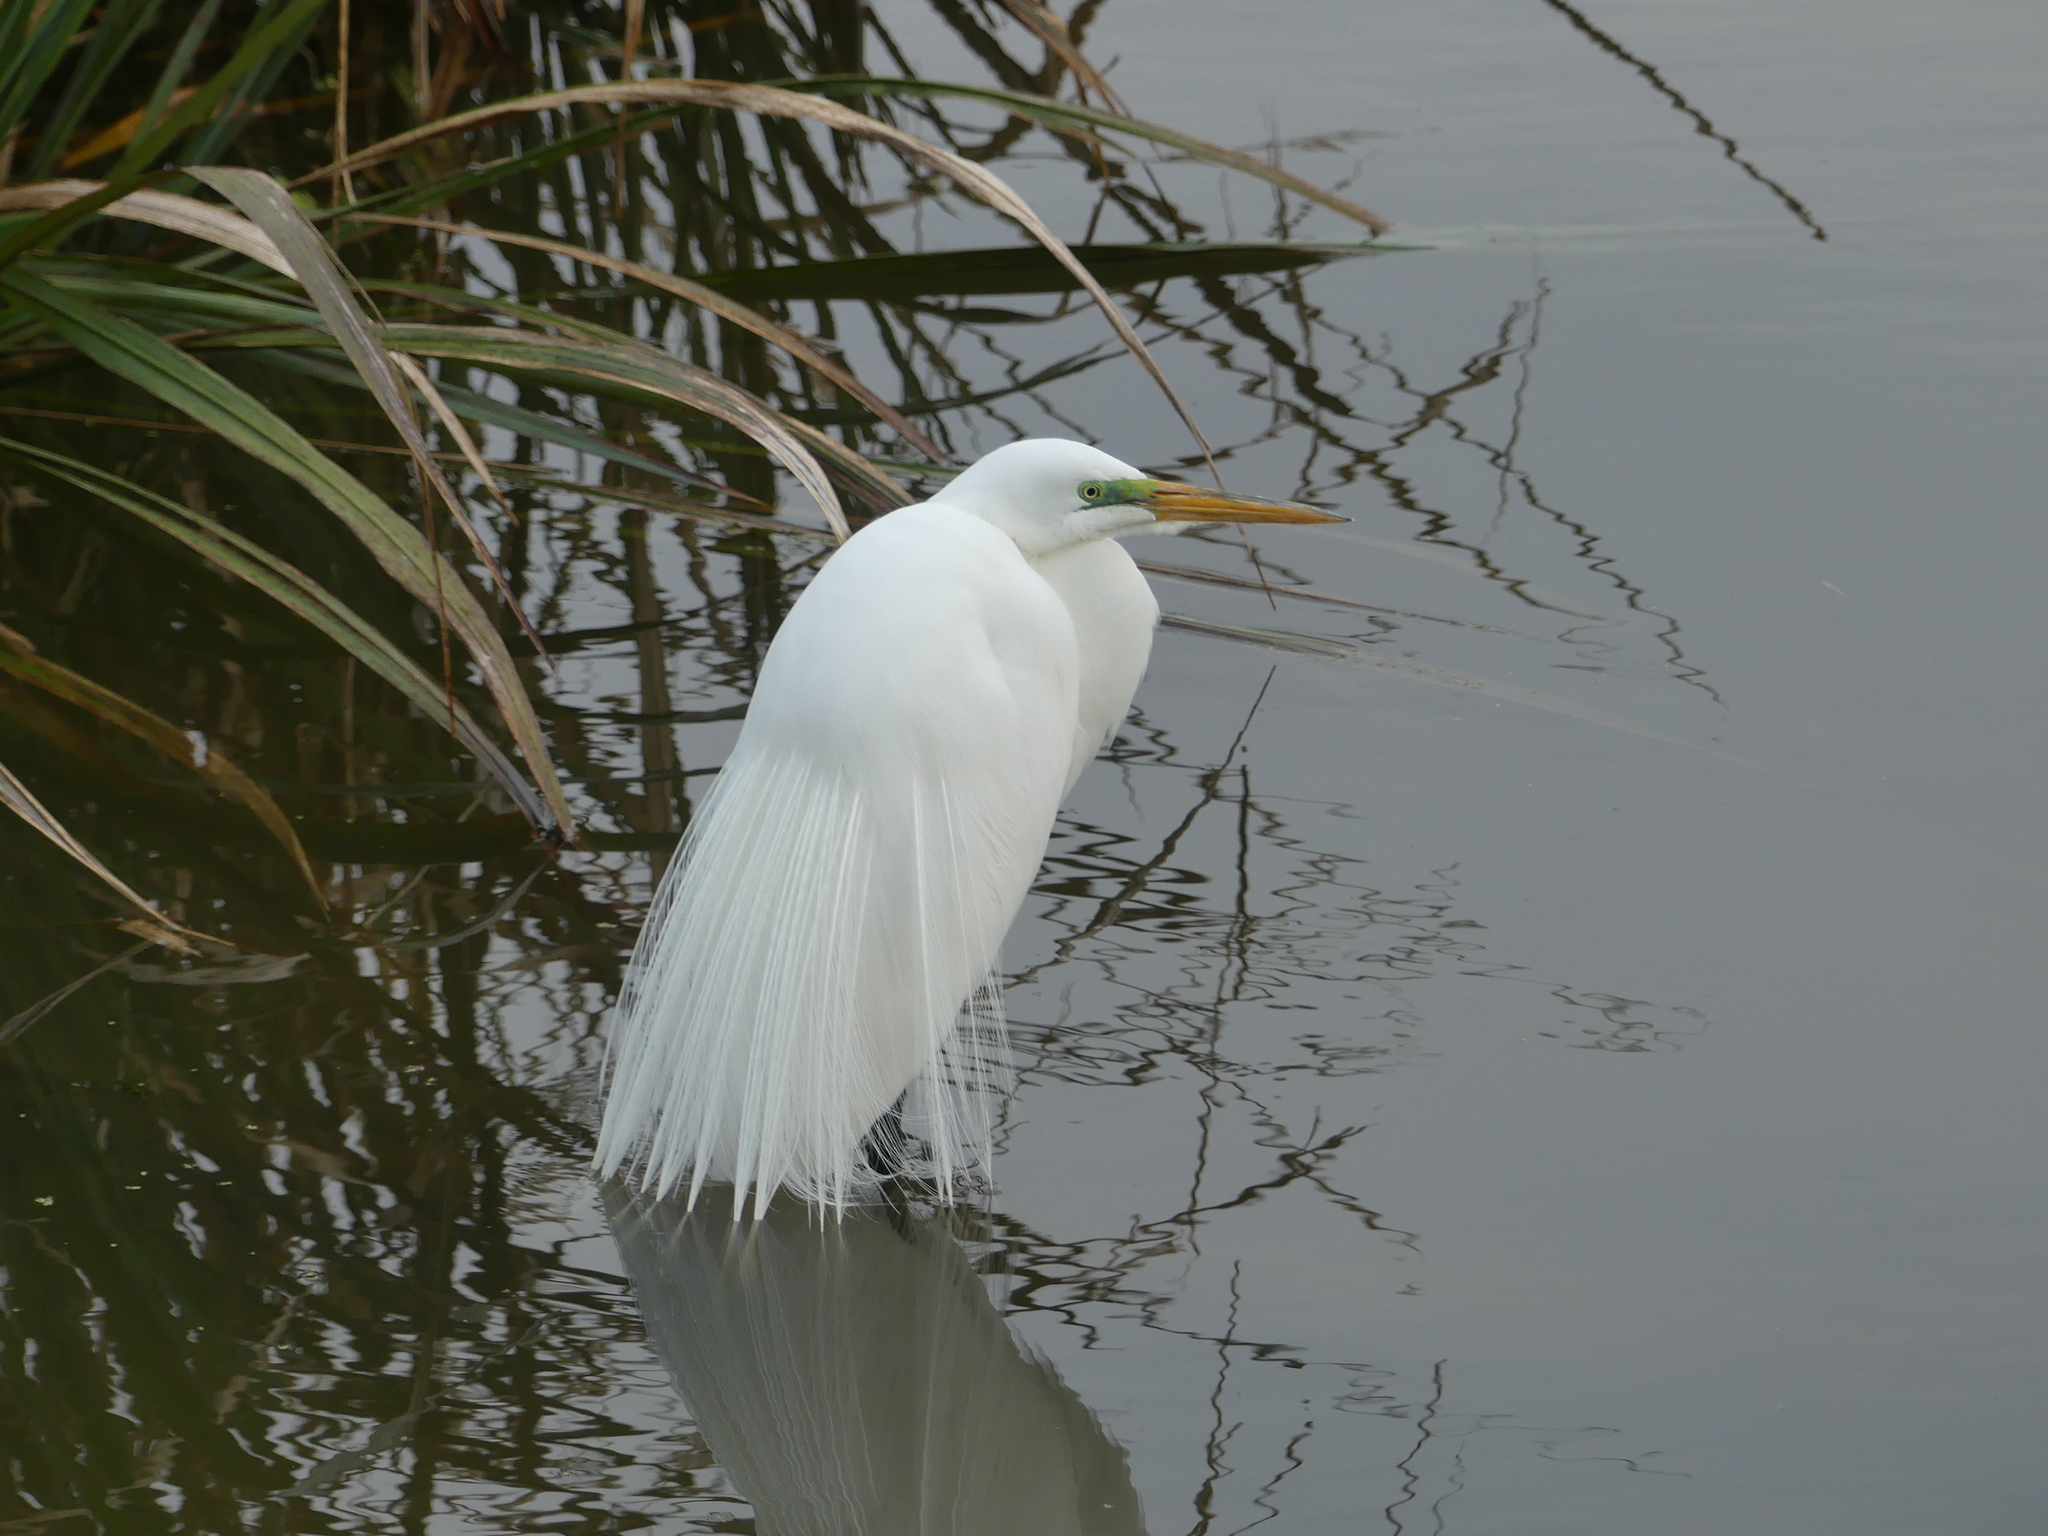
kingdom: Animalia
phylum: Chordata
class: Aves
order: Pelecaniformes
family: Ardeidae
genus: Ardea
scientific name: Ardea alba
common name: Great egret
